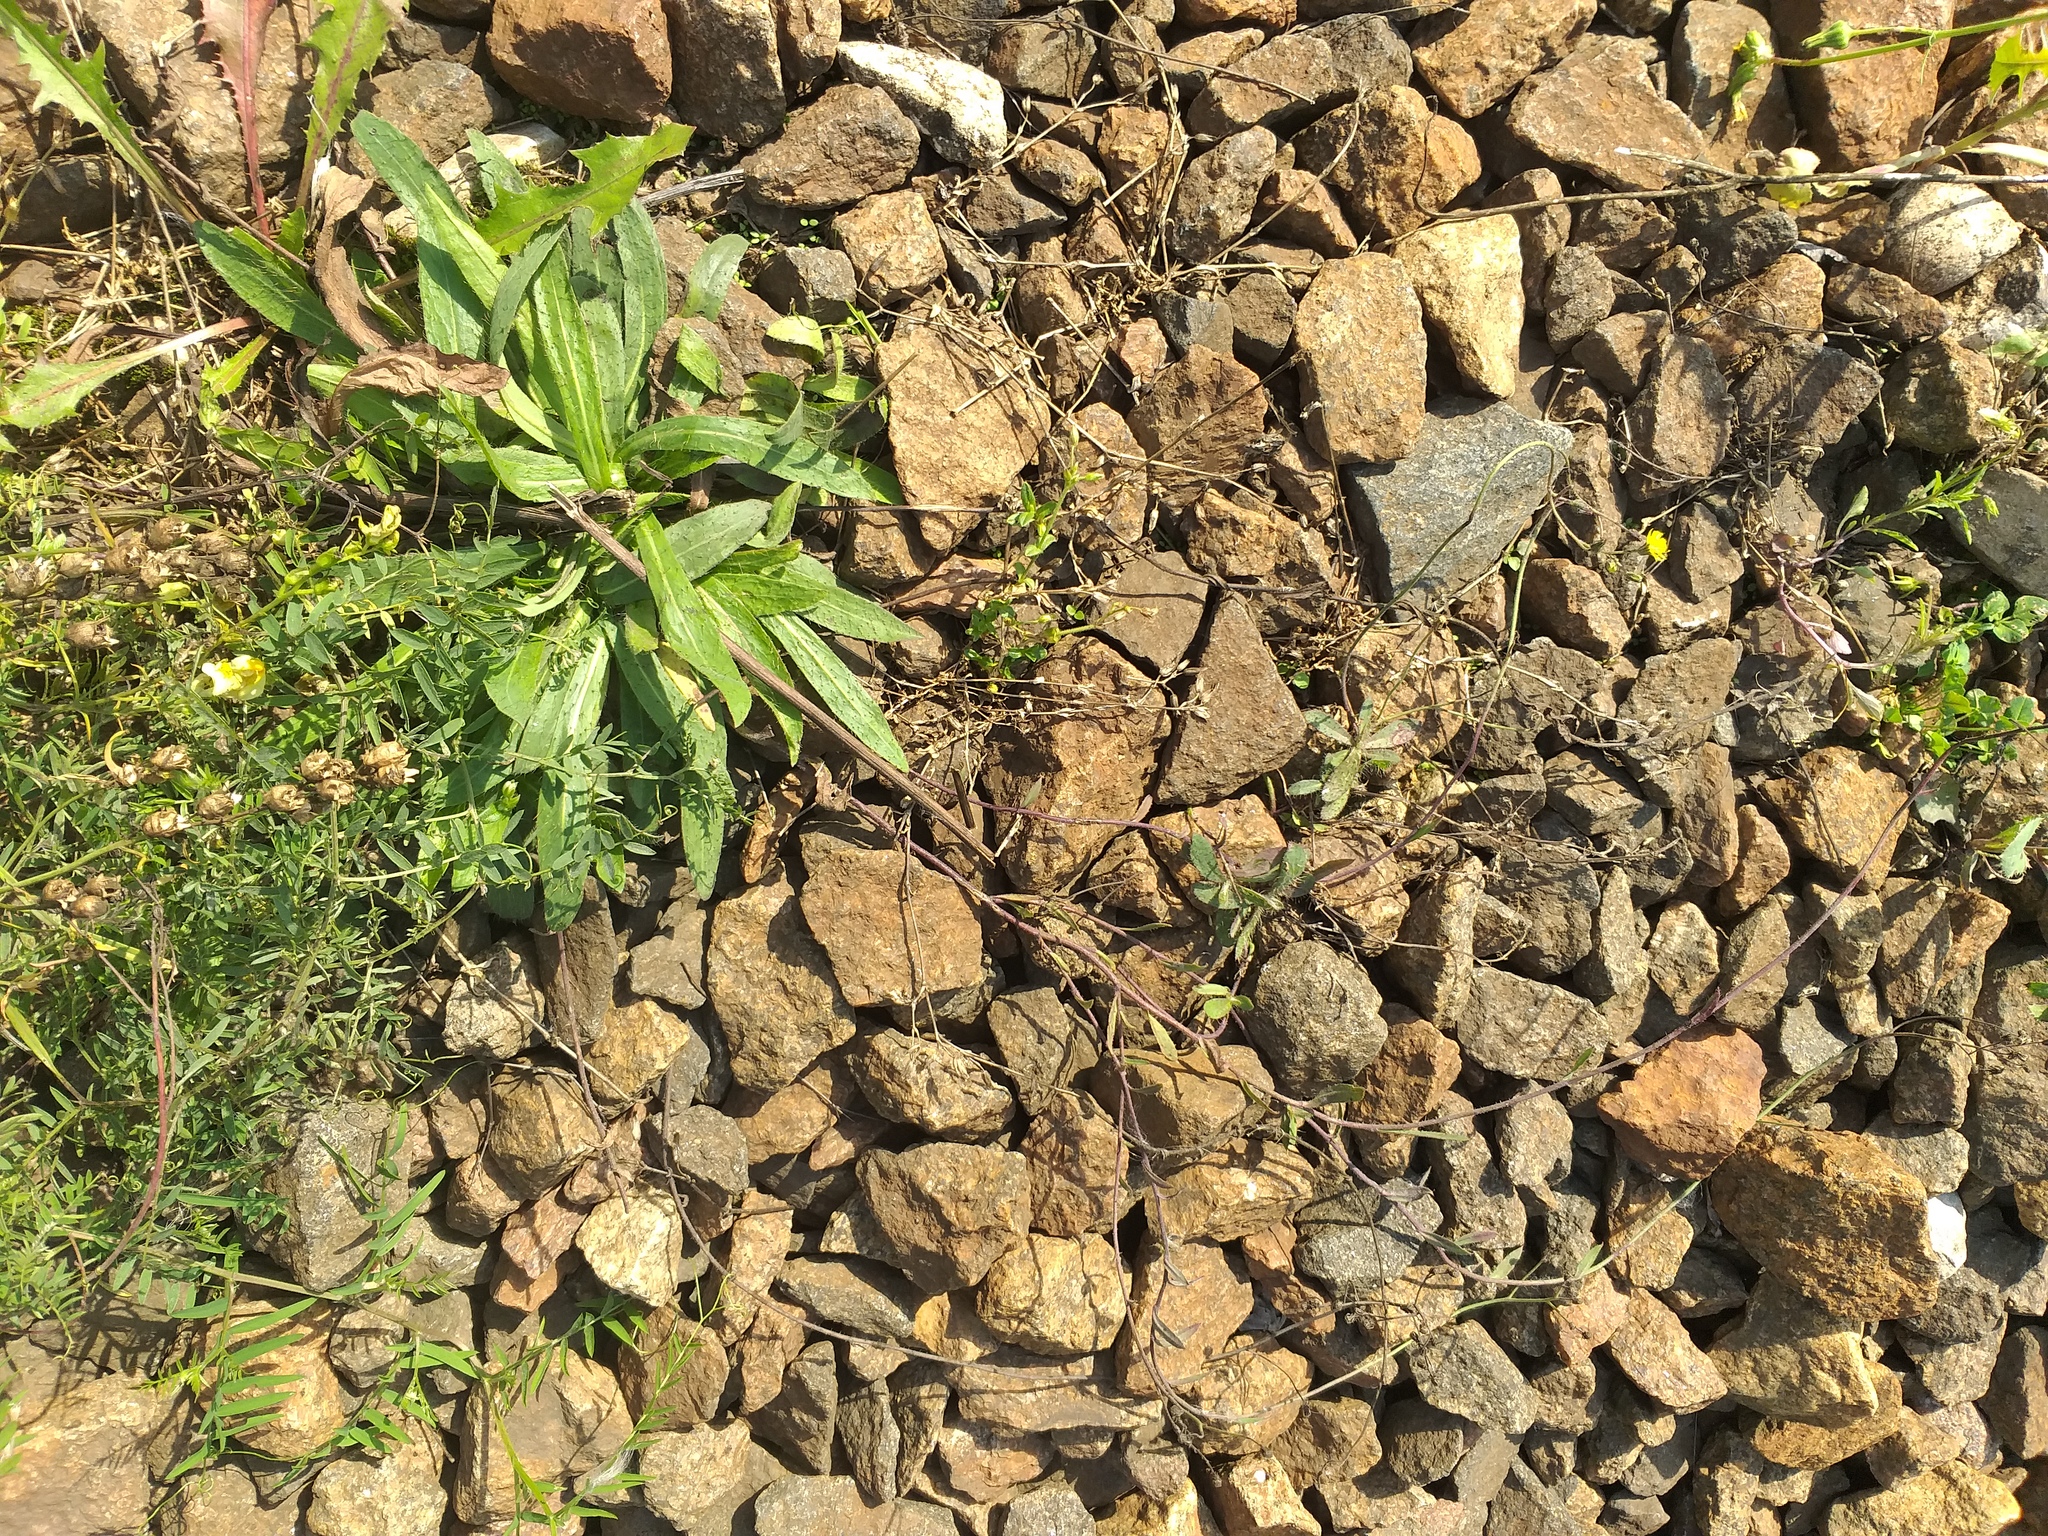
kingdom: Plantae
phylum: Tracheophyta
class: Magnoliopsida
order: Asterales
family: Asteraceae
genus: Pilosella
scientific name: Pilosella
